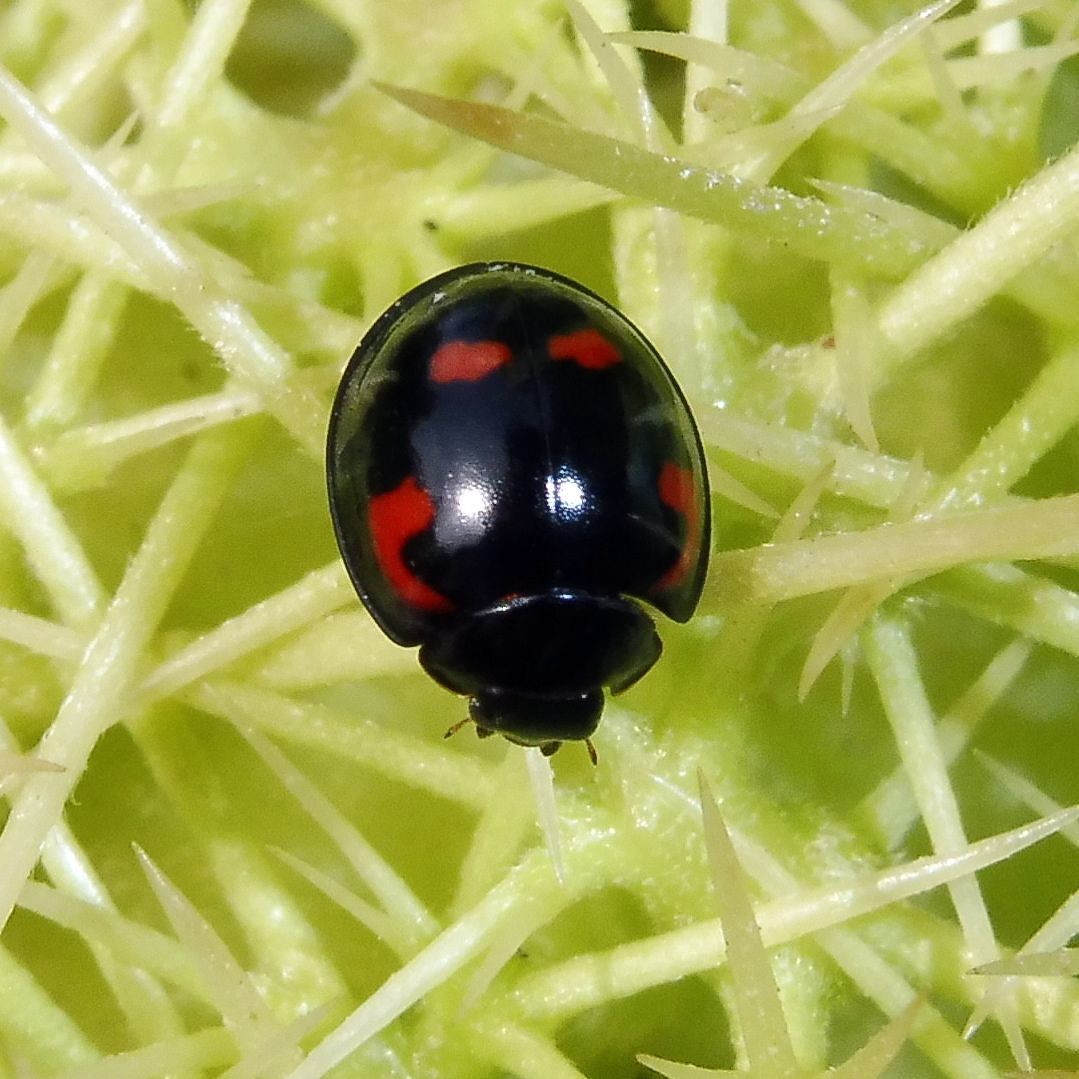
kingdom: Animalia
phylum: Arthropoda
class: Insecta
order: Coleoptera
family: Coccinellidae
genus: Brumus
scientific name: Brumus quadripustulatus
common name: Ladybird beetle
